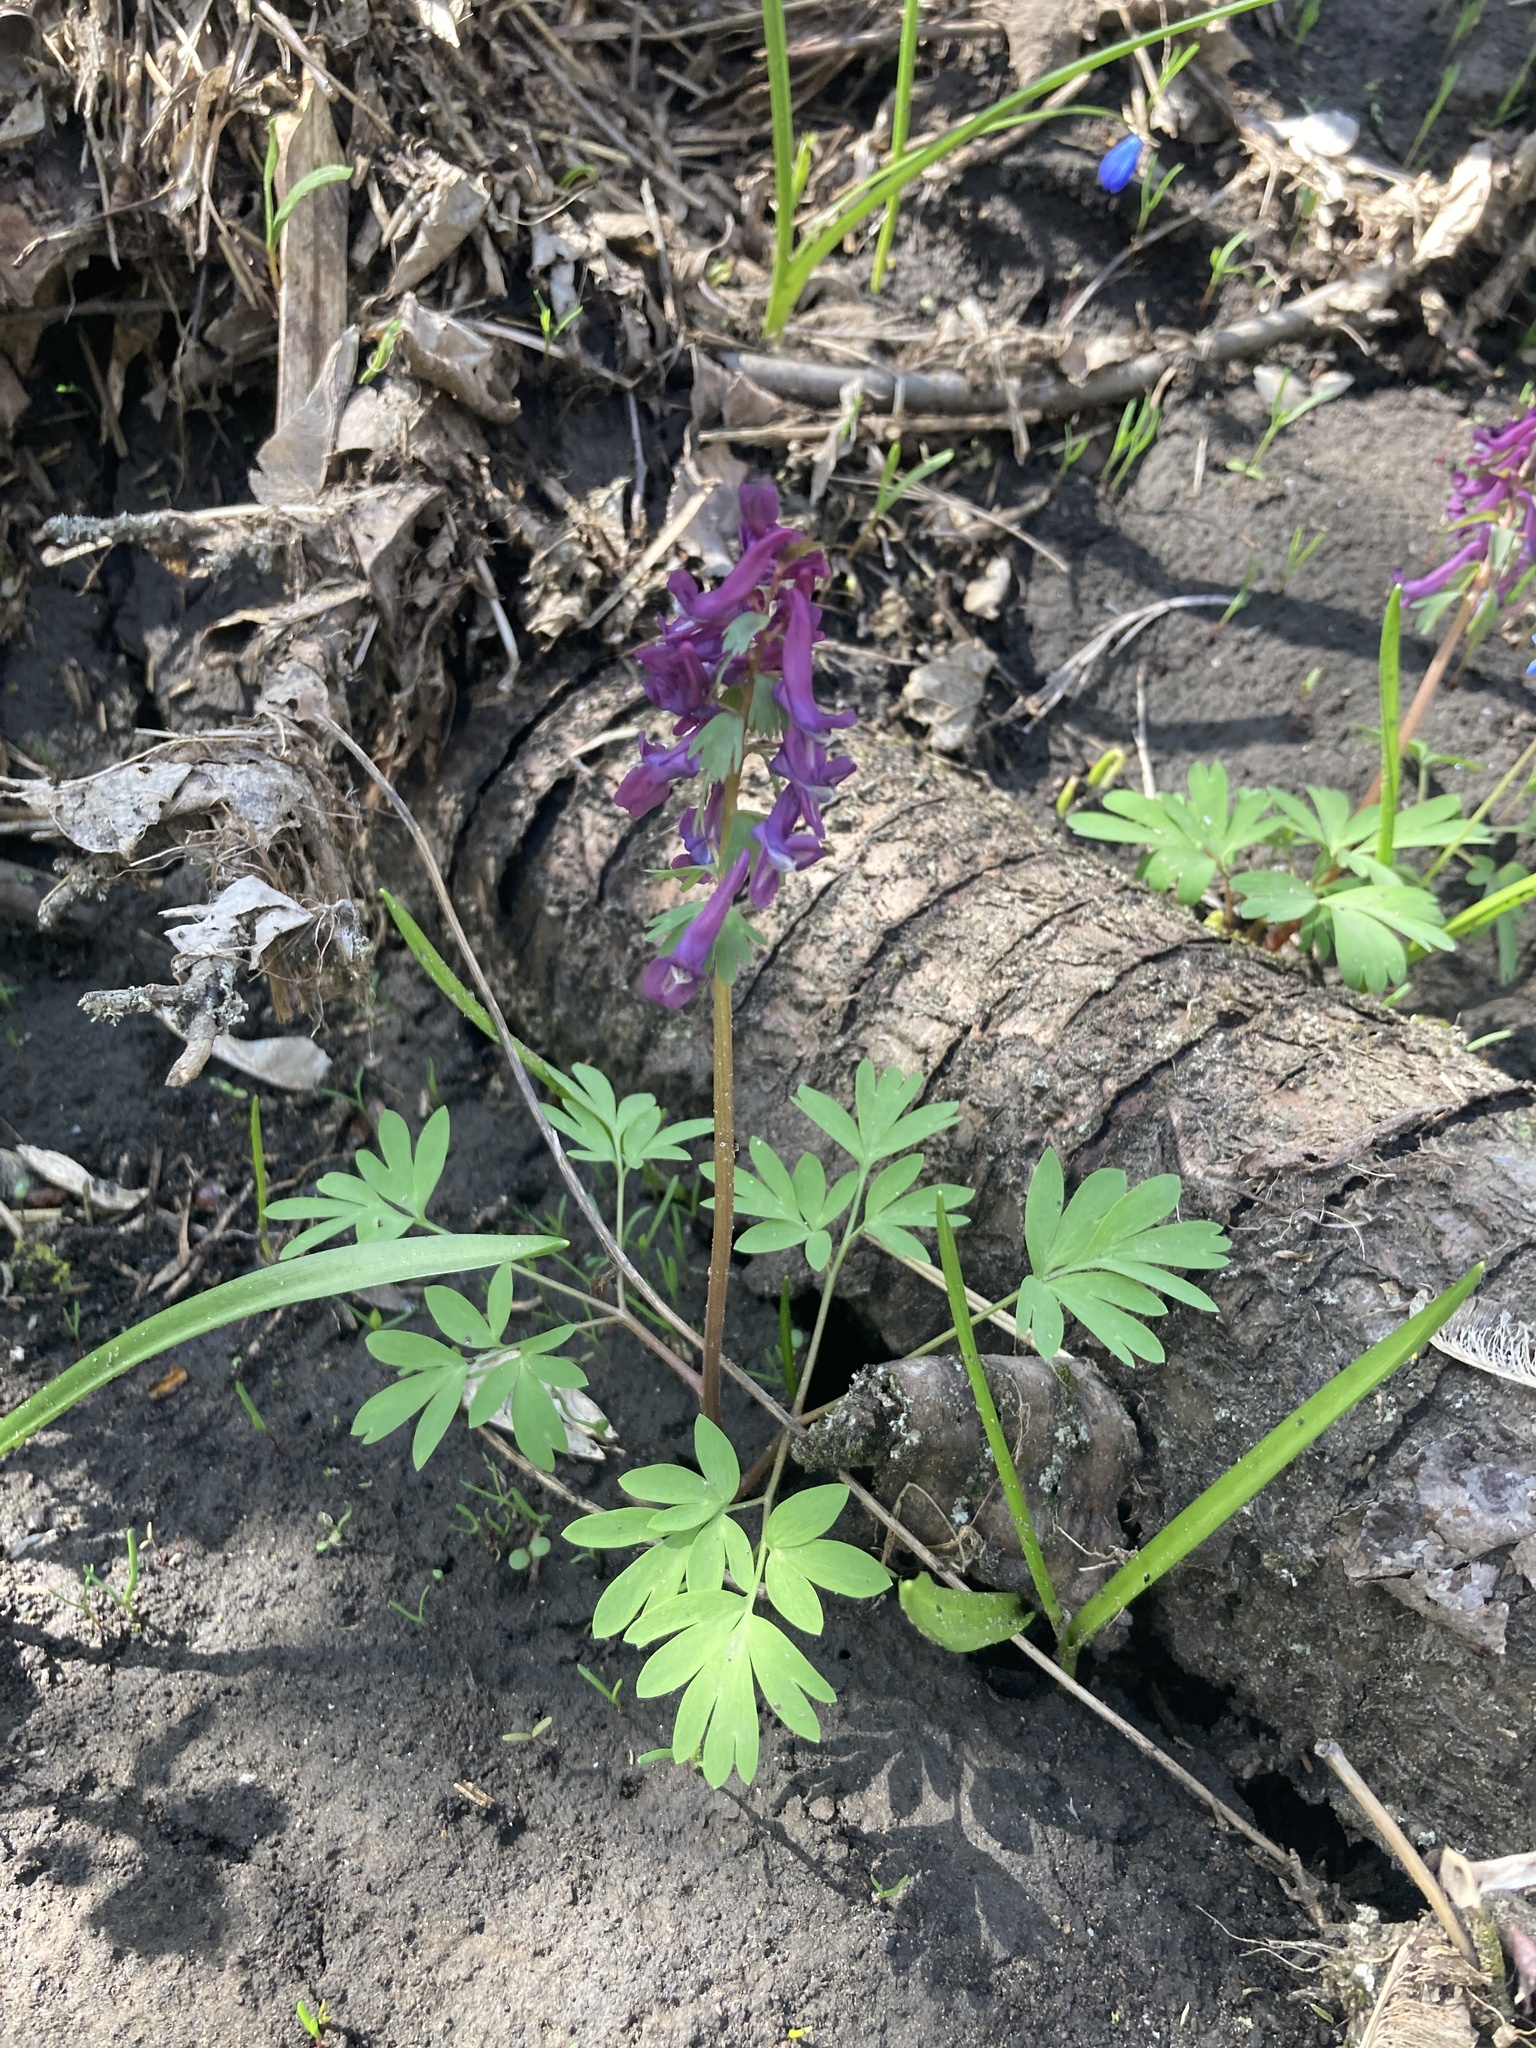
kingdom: Plantae
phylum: Tracheophyta
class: Magnoliopsida
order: Ranunculales
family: Papaveraceae
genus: Corydalis
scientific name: Corydalis solida
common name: Bird-in-a-bush
